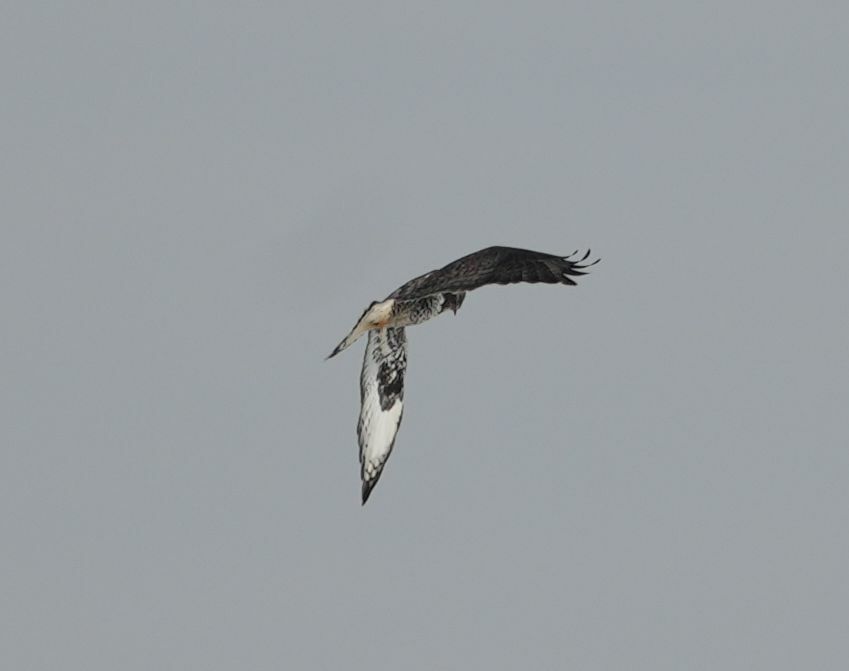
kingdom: Animalia
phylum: Chordata
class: Aves
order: Accipitriformes
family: Accipitridae
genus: Buteo
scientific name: Buteo lagopus
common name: Rough-legged buzzard
